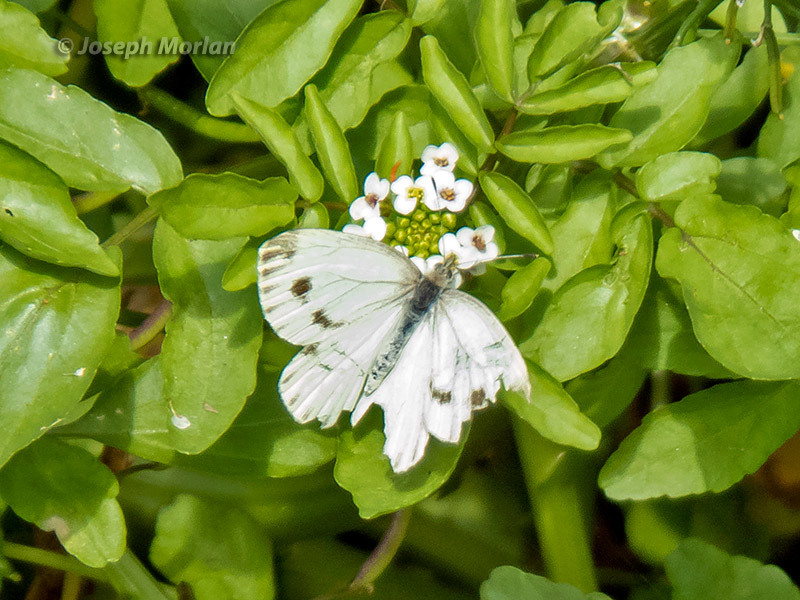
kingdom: Animalia
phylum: Arthropoda
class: Insecta
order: Lepidoptera
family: Pieridae
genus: Pieris
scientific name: Pieris marginalis
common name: Margined white
